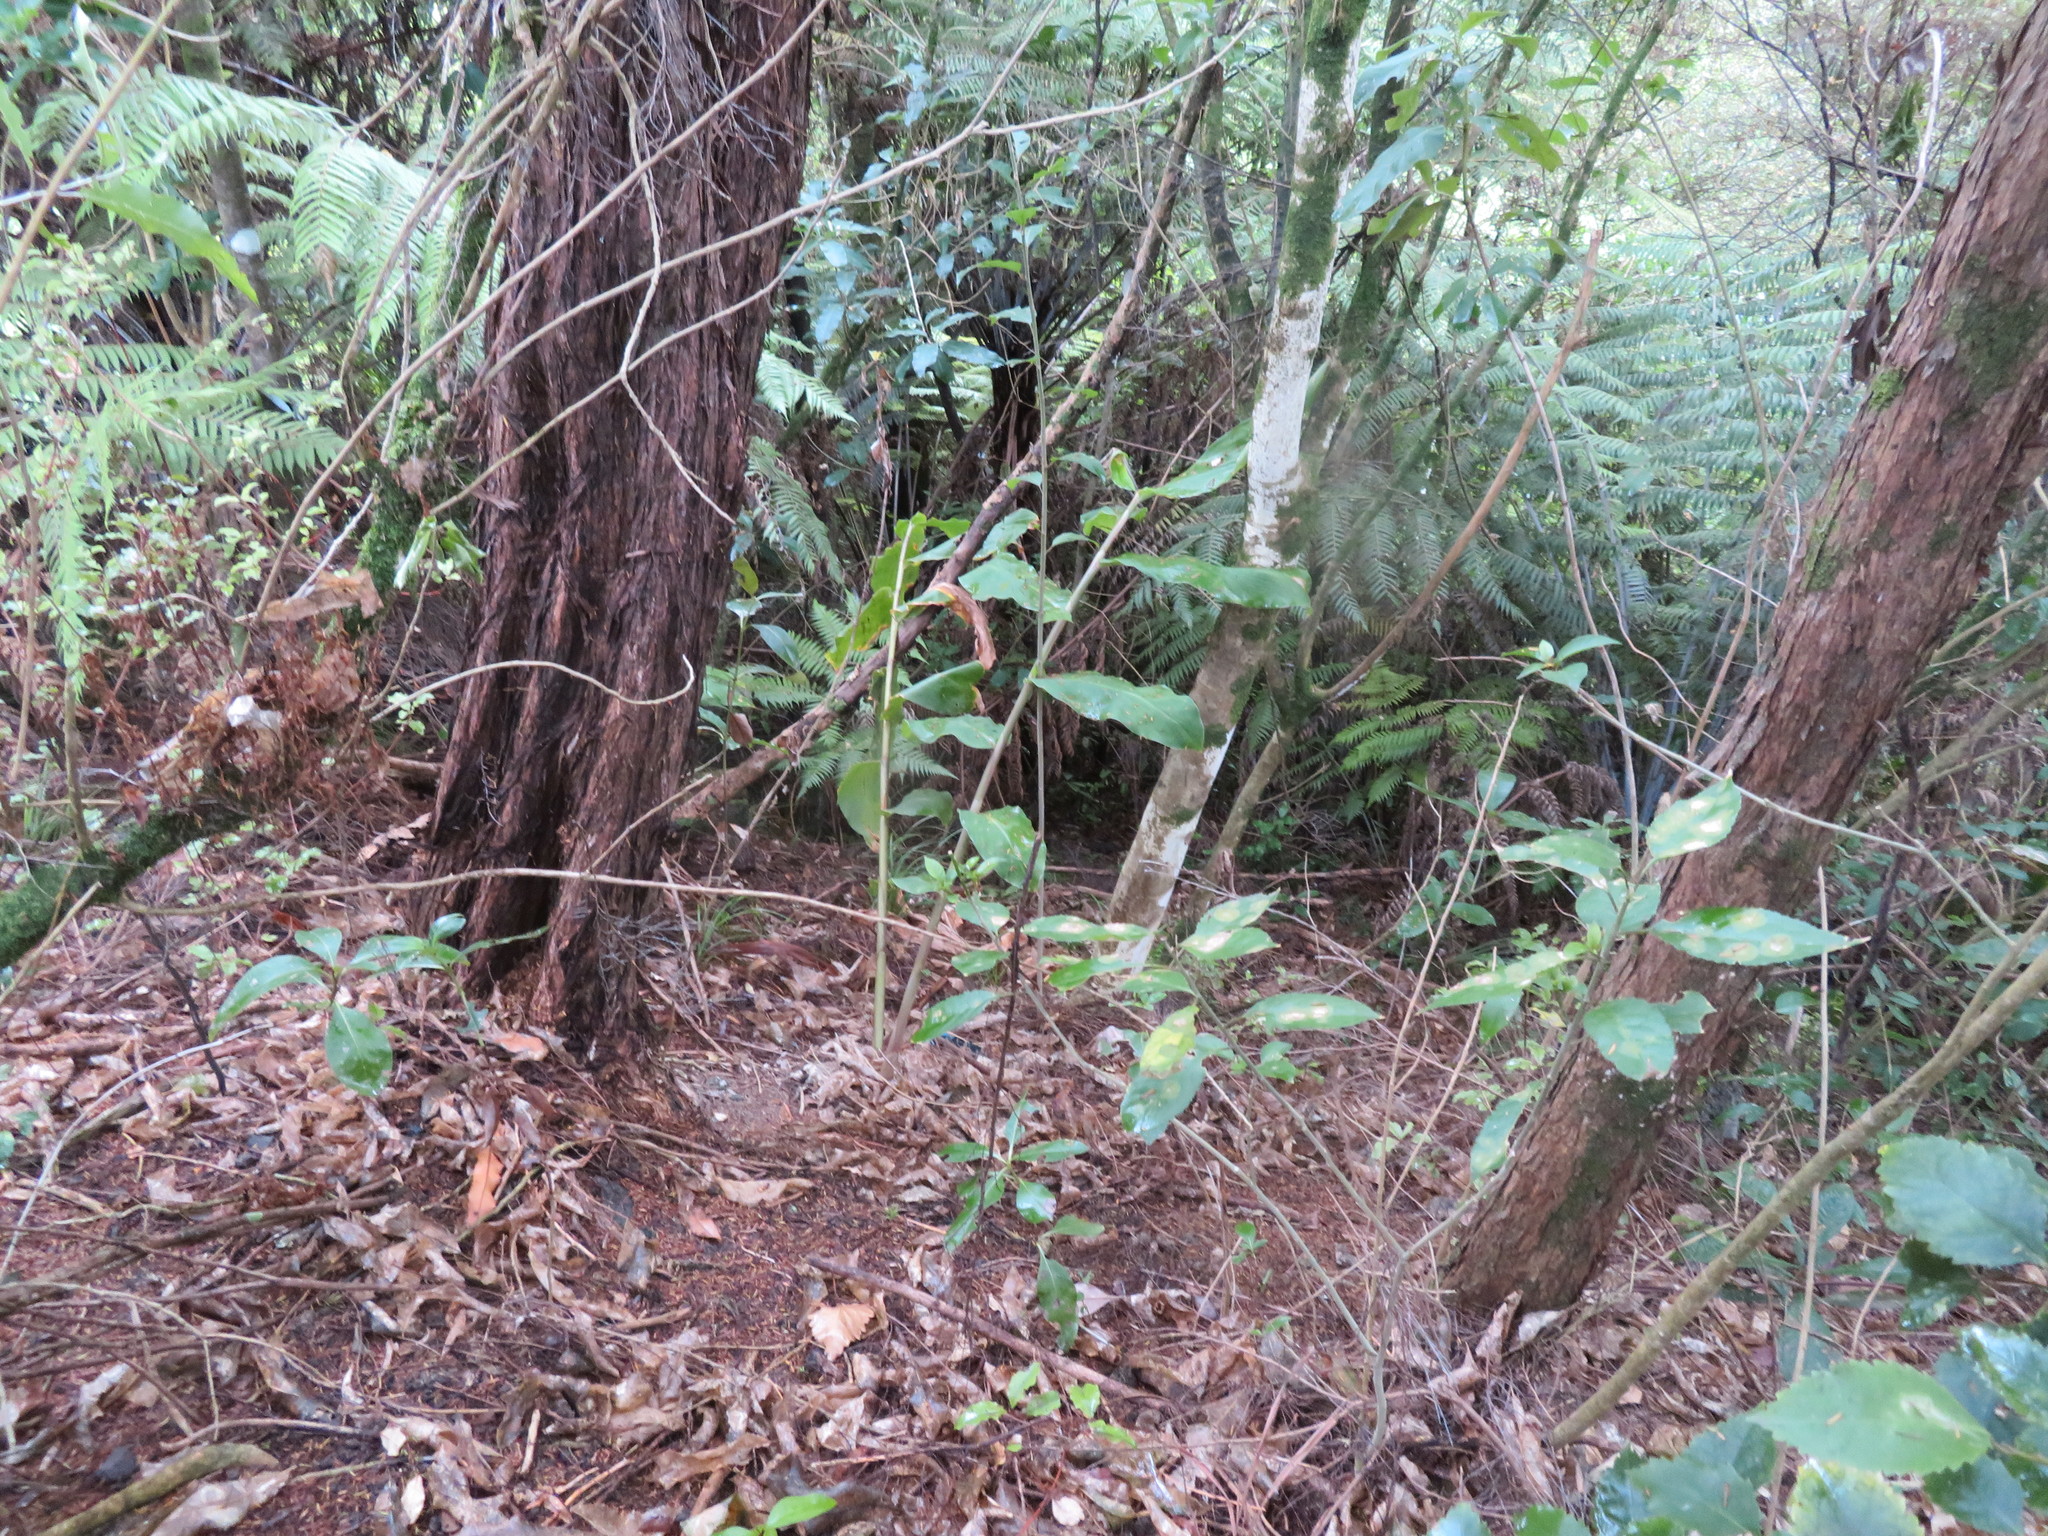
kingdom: Plantae
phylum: Tracheophyta
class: Liliopsida
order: Zingiberales
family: Zingiberaceae
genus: Hedychium
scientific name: Hedychium gardnerianum
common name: Himalayan ginger
